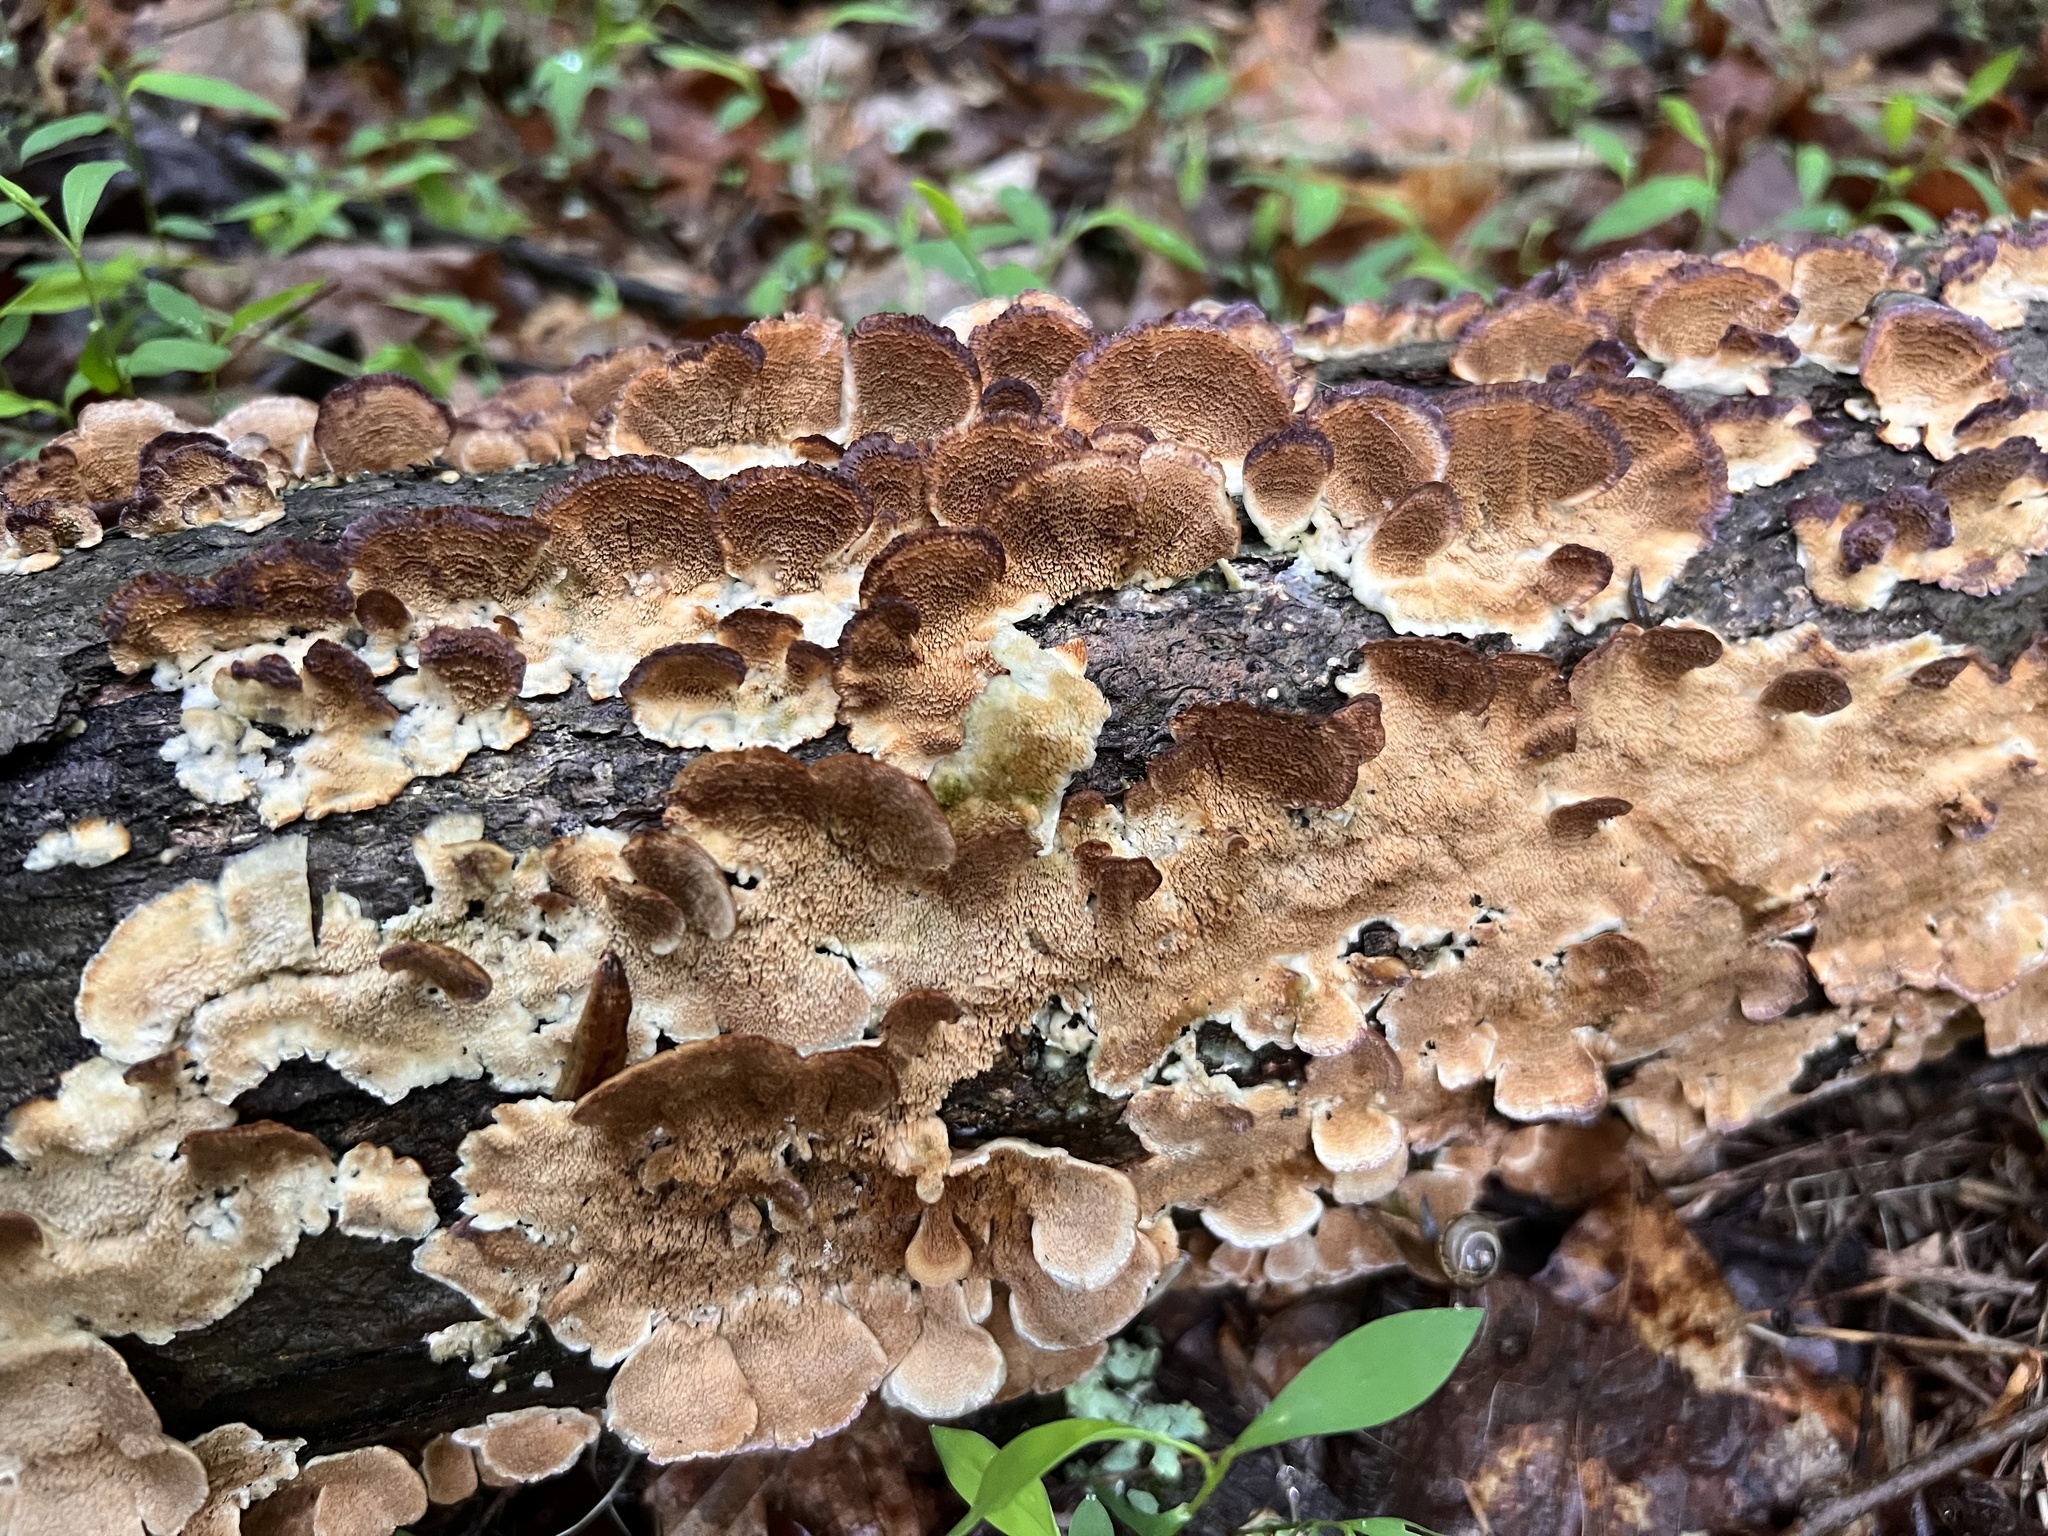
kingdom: Fungi
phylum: Basidiomycota
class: Agaricomycetes
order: Hymenochaetales
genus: Trichaptum
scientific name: Trichaptum biforme
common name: Violet-toothed polypore
